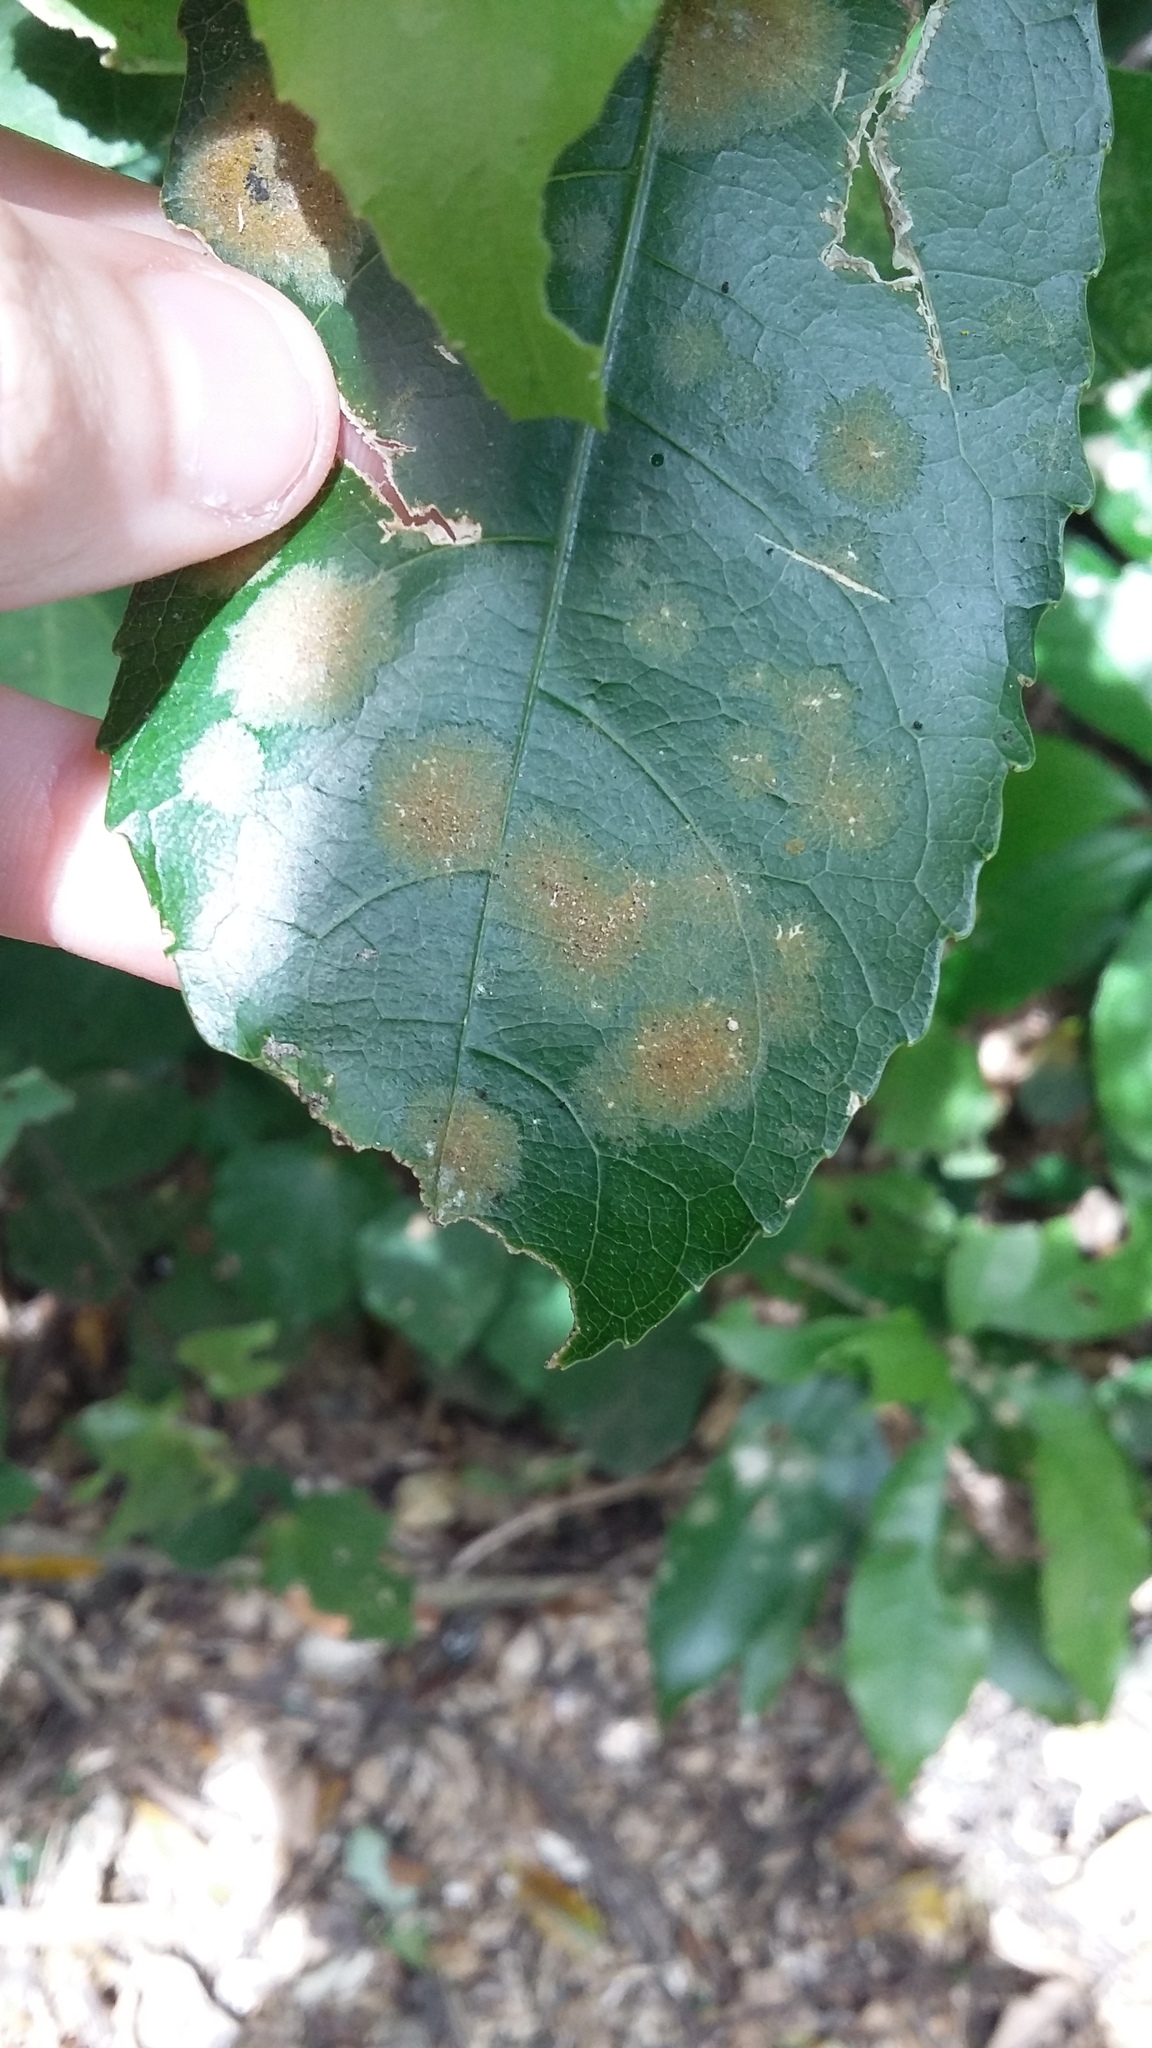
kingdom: Plantae
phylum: Chlorophyta
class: Ulvophyceae
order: Trentepohliales
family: Trentepohliaceae
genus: Cephaleuros
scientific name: Cephaleuros
